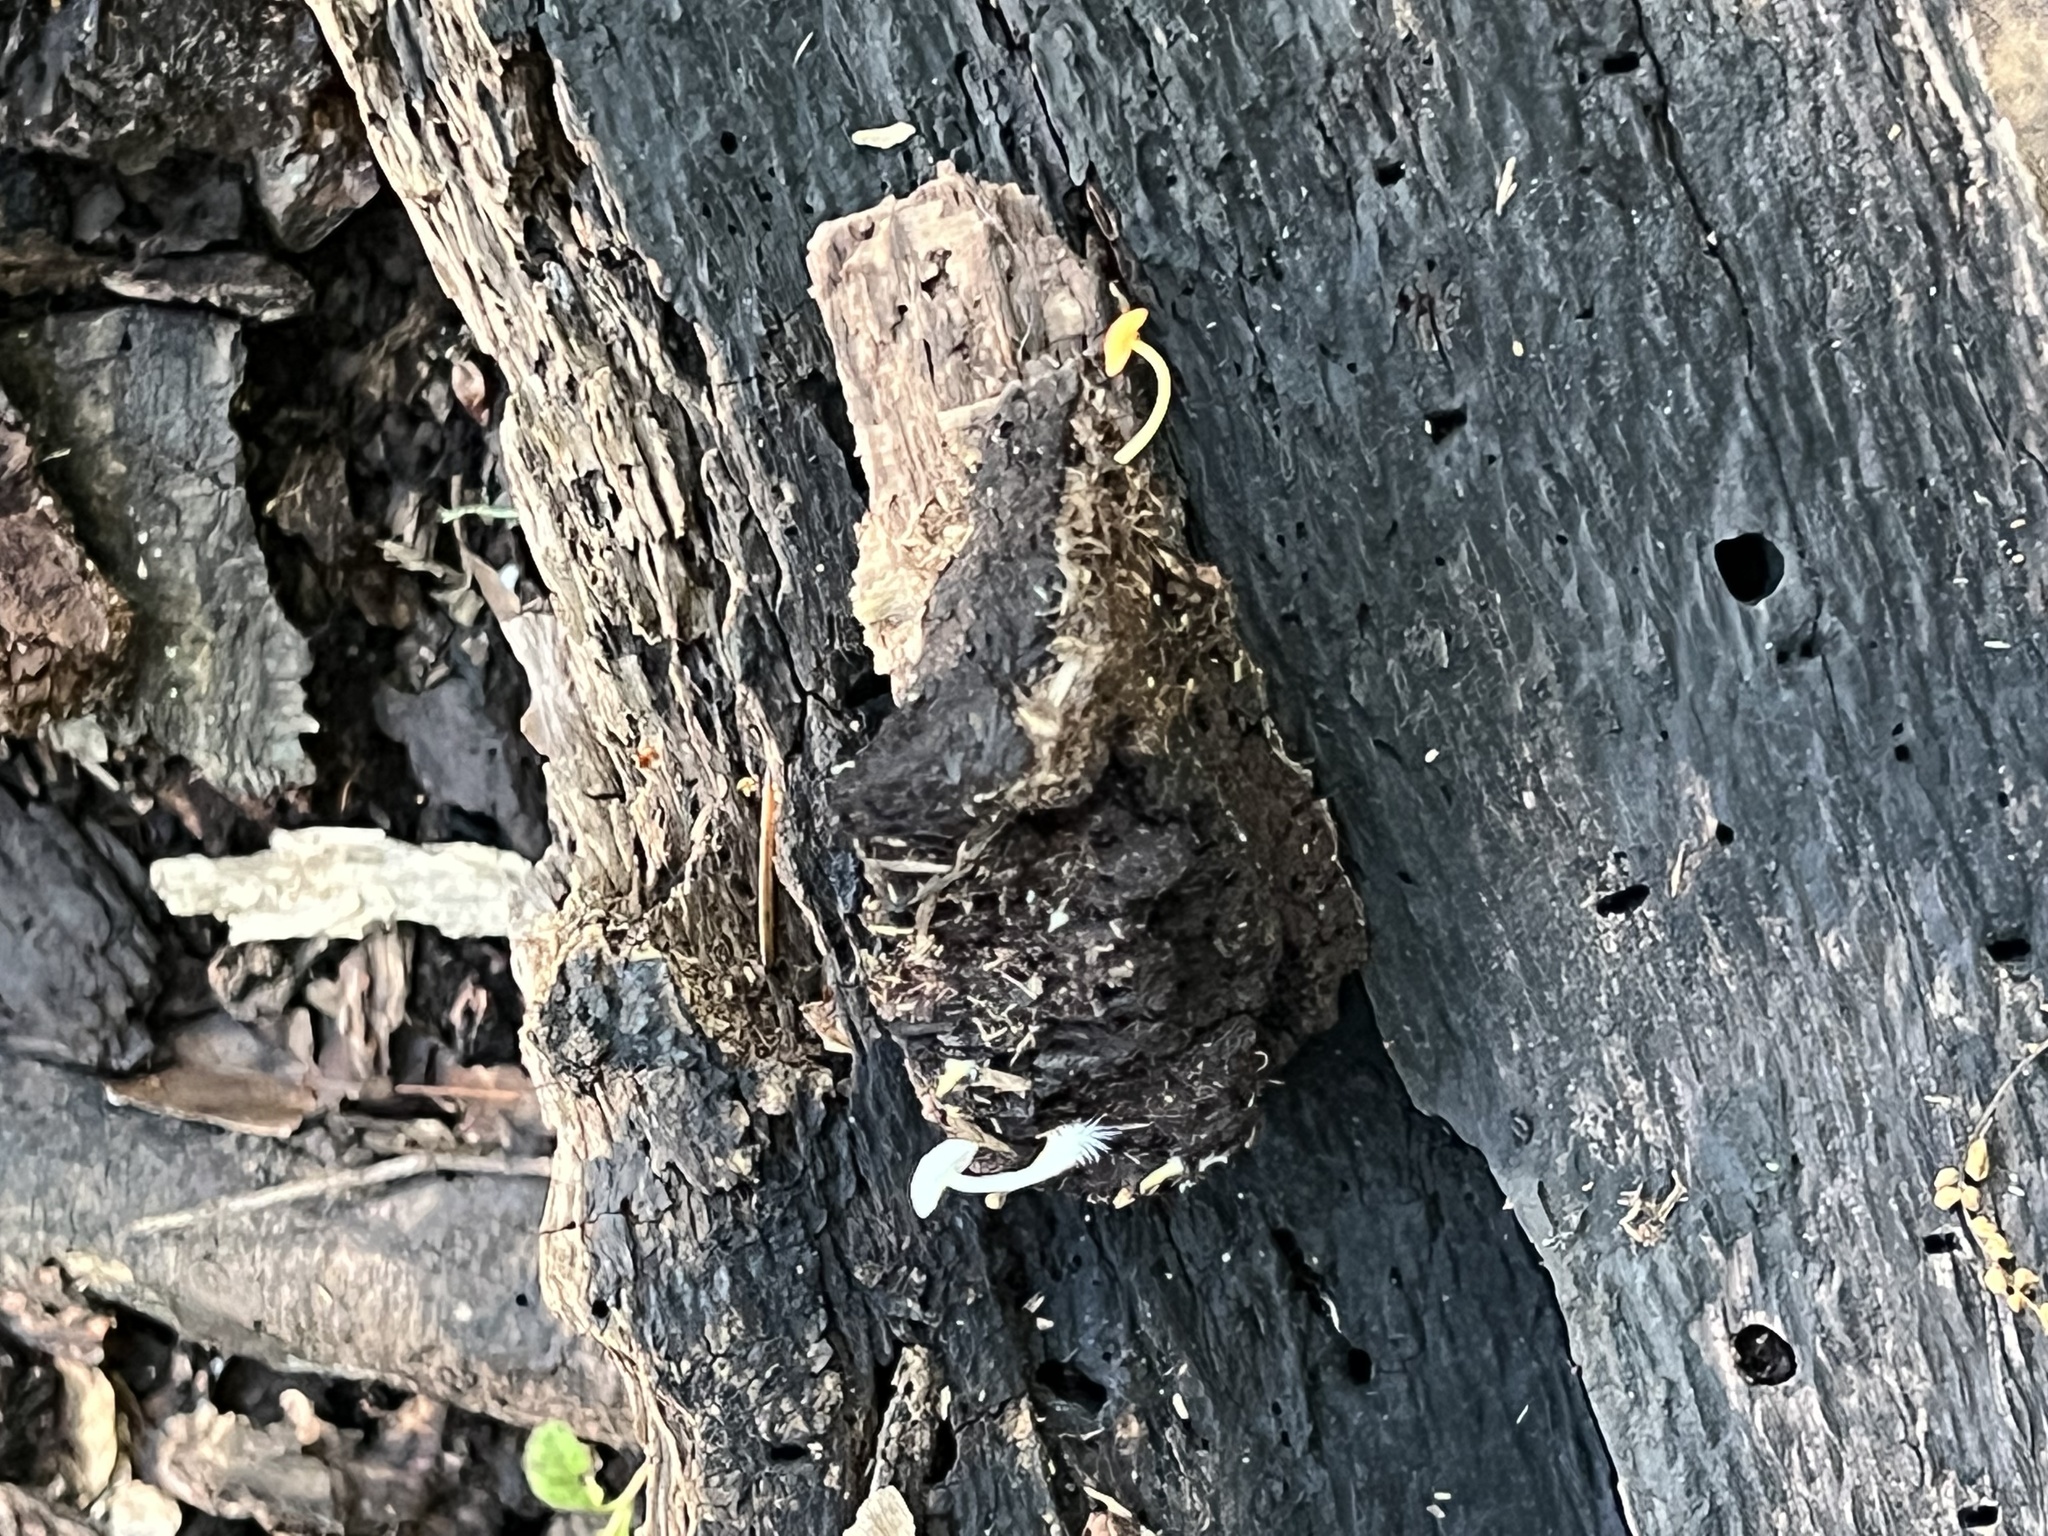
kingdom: Fungi
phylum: Basidiomycota
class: Agaricomycetes
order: Agaricales
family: Mycenaceae
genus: Mycena
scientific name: Mycena acicula
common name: Orange bonnet
